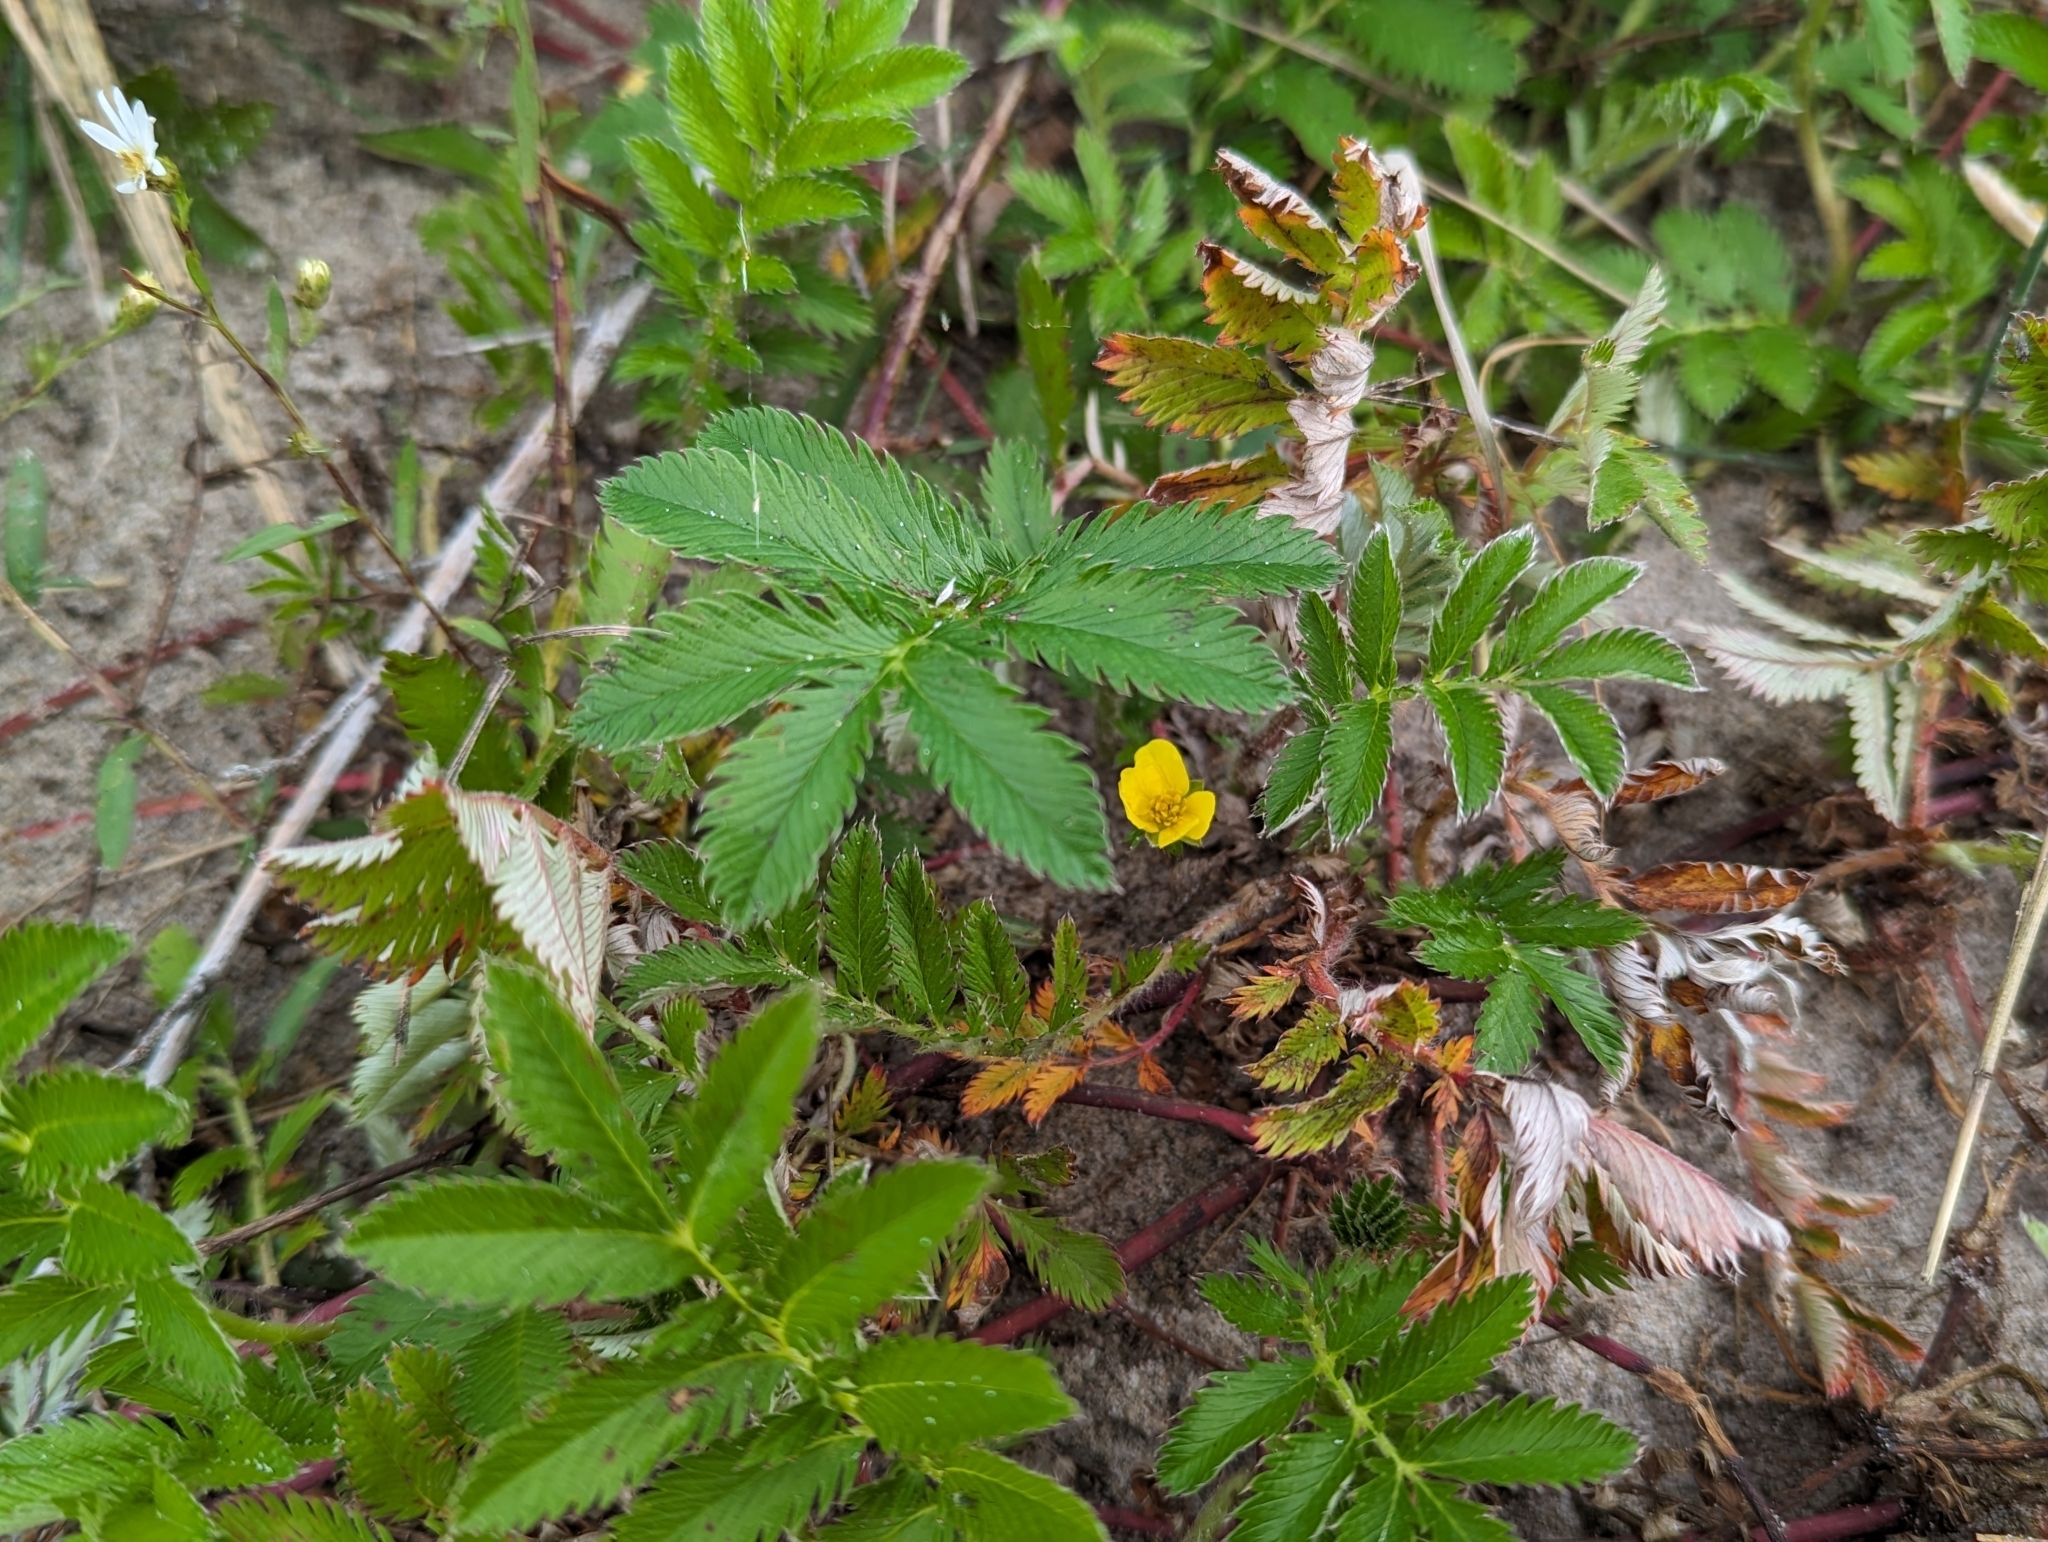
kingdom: Plantae
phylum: Tracheophyta
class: Magnoliopsida
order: Rosales
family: Rosaceae
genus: Argentina
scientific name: Argentina anserina
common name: Common silverweed
